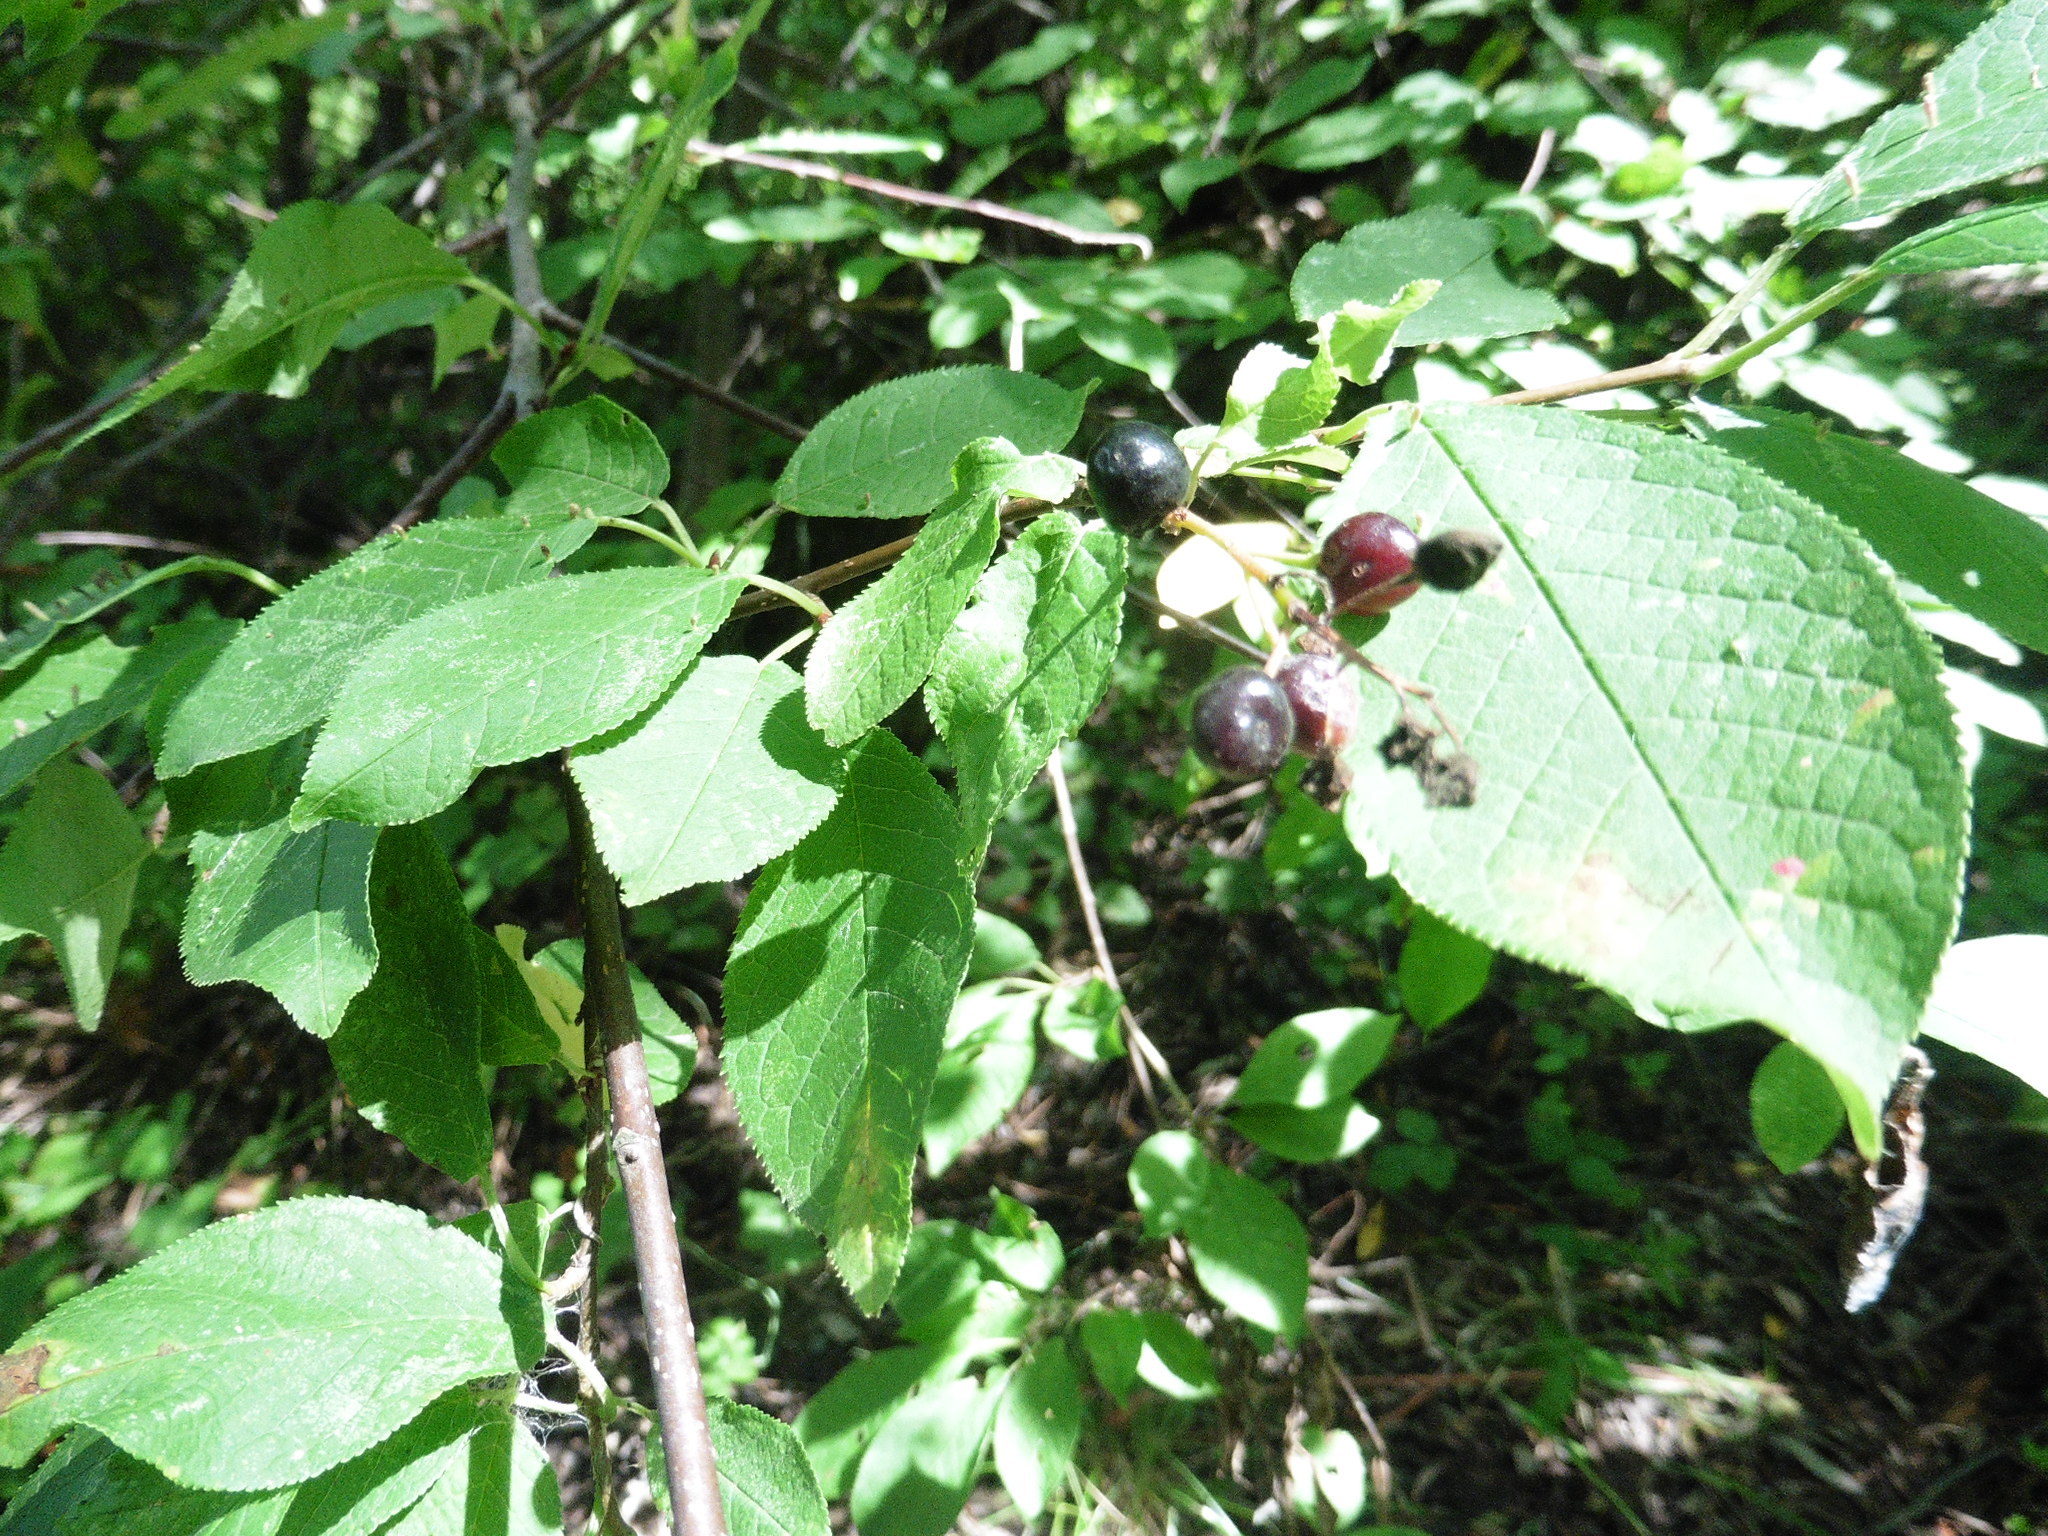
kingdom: Plantae
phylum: Tracheophyta
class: Magnoliopsida
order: Rosales
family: Rosaceae
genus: Prunus
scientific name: Prunus padus
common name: Bird cherry
